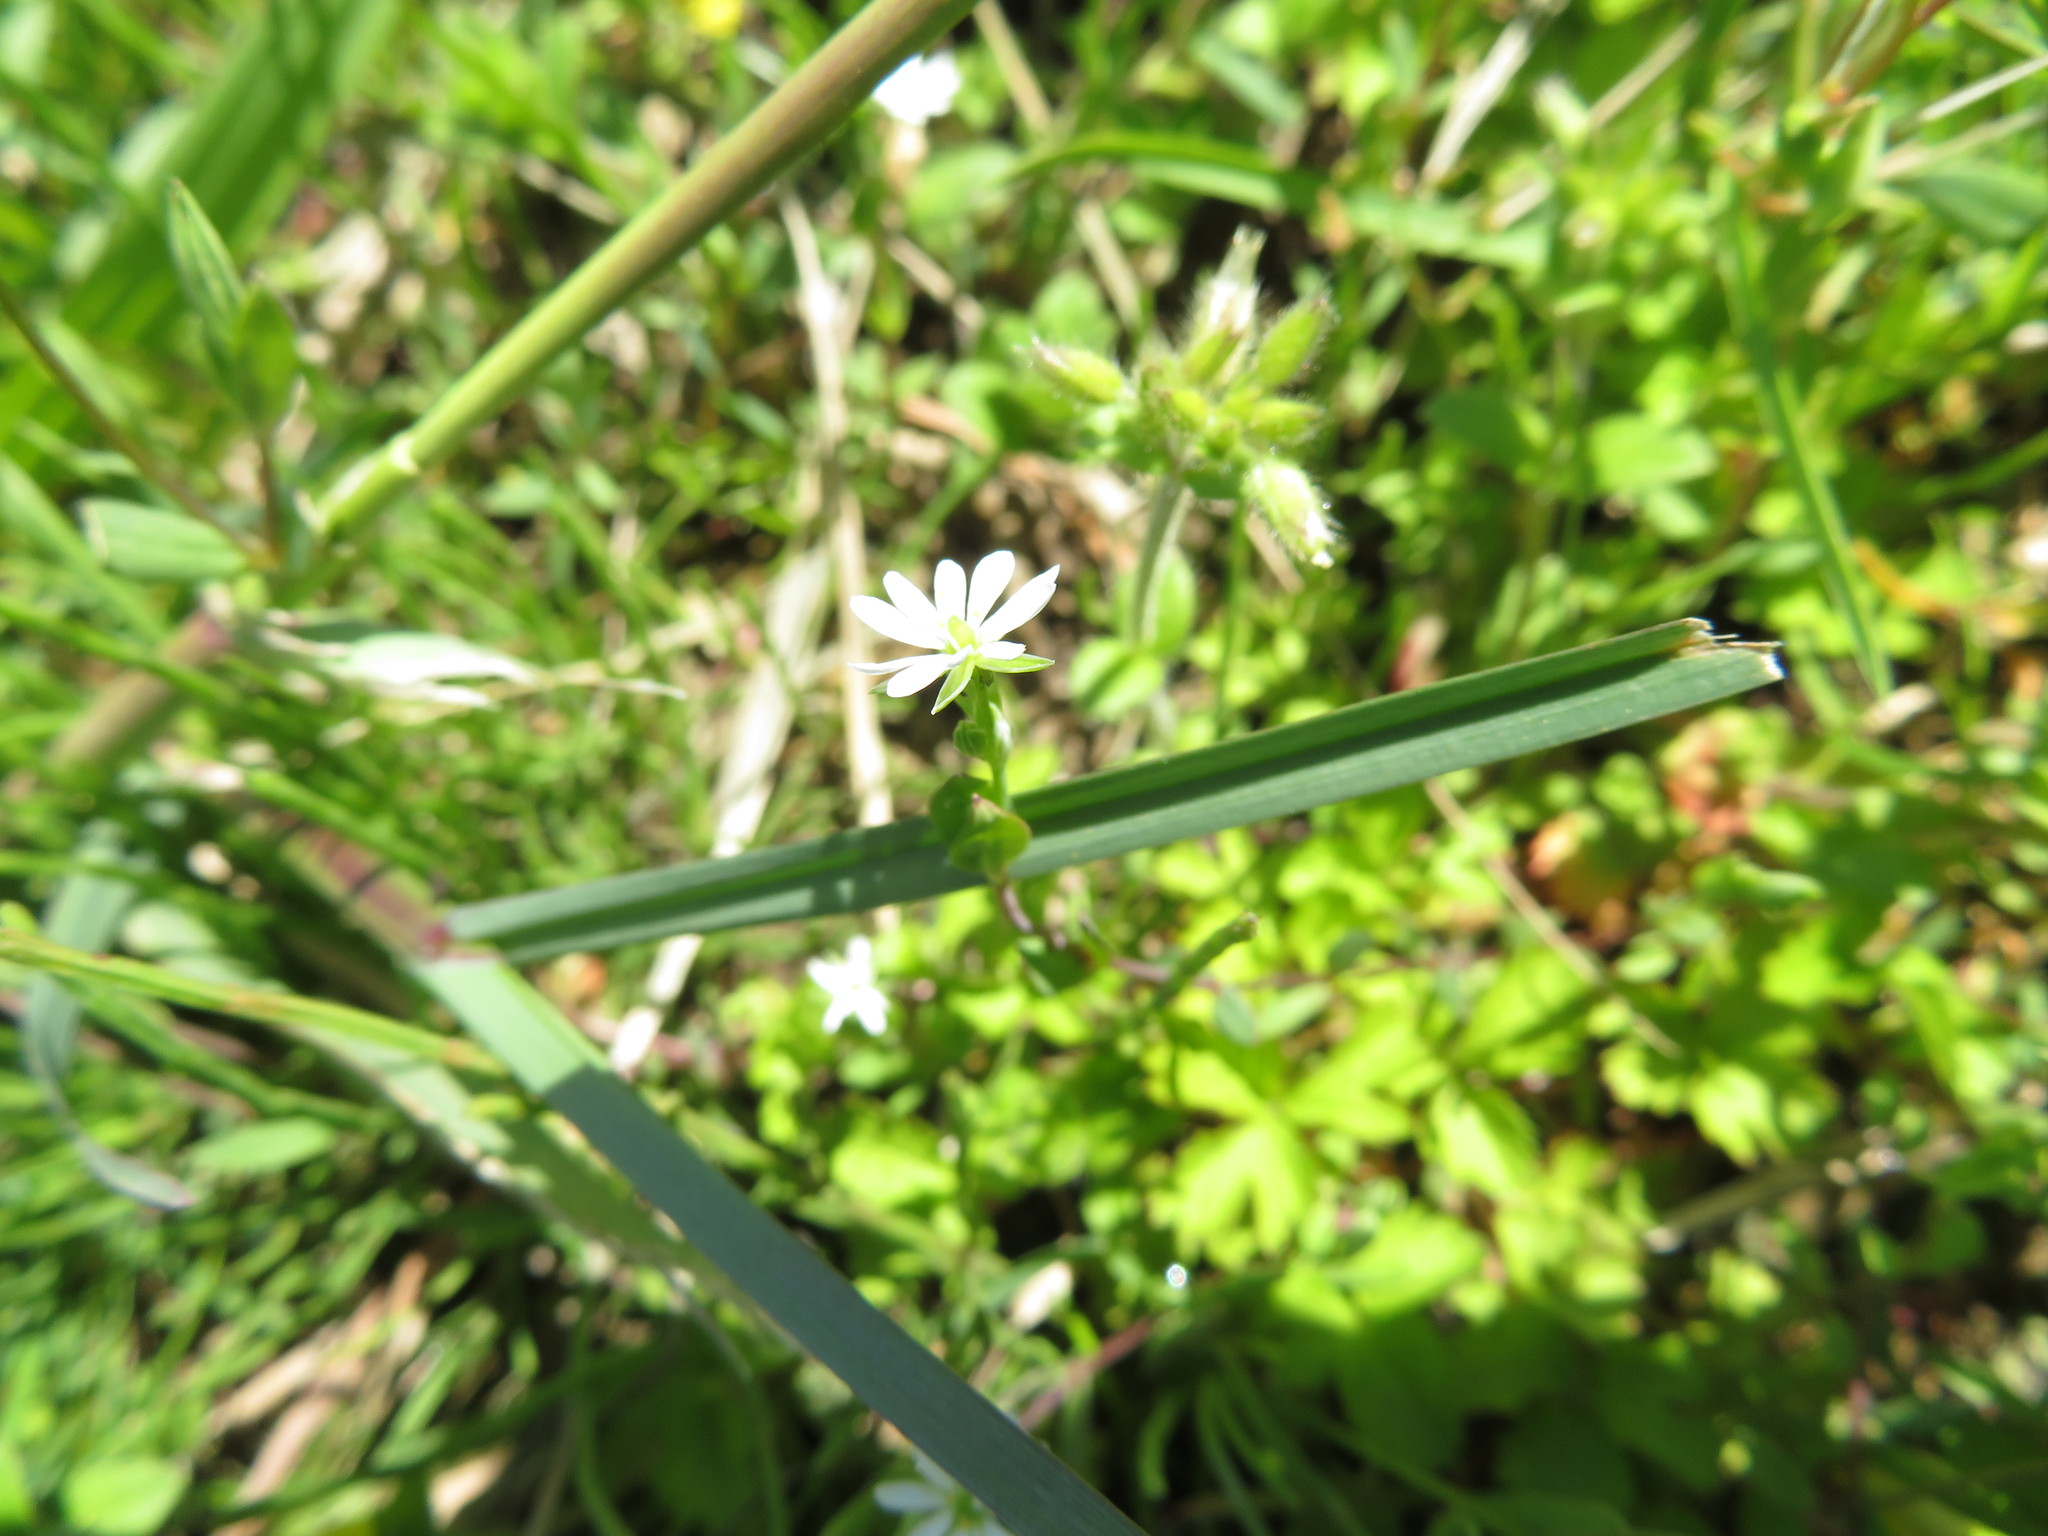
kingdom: Plantae
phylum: Tracheophyta
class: Magnoliopsida
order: Caryophyllales
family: Caryophyllaceae
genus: Stellaria
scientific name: Stellaria alsine
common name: Bog stitchwort
